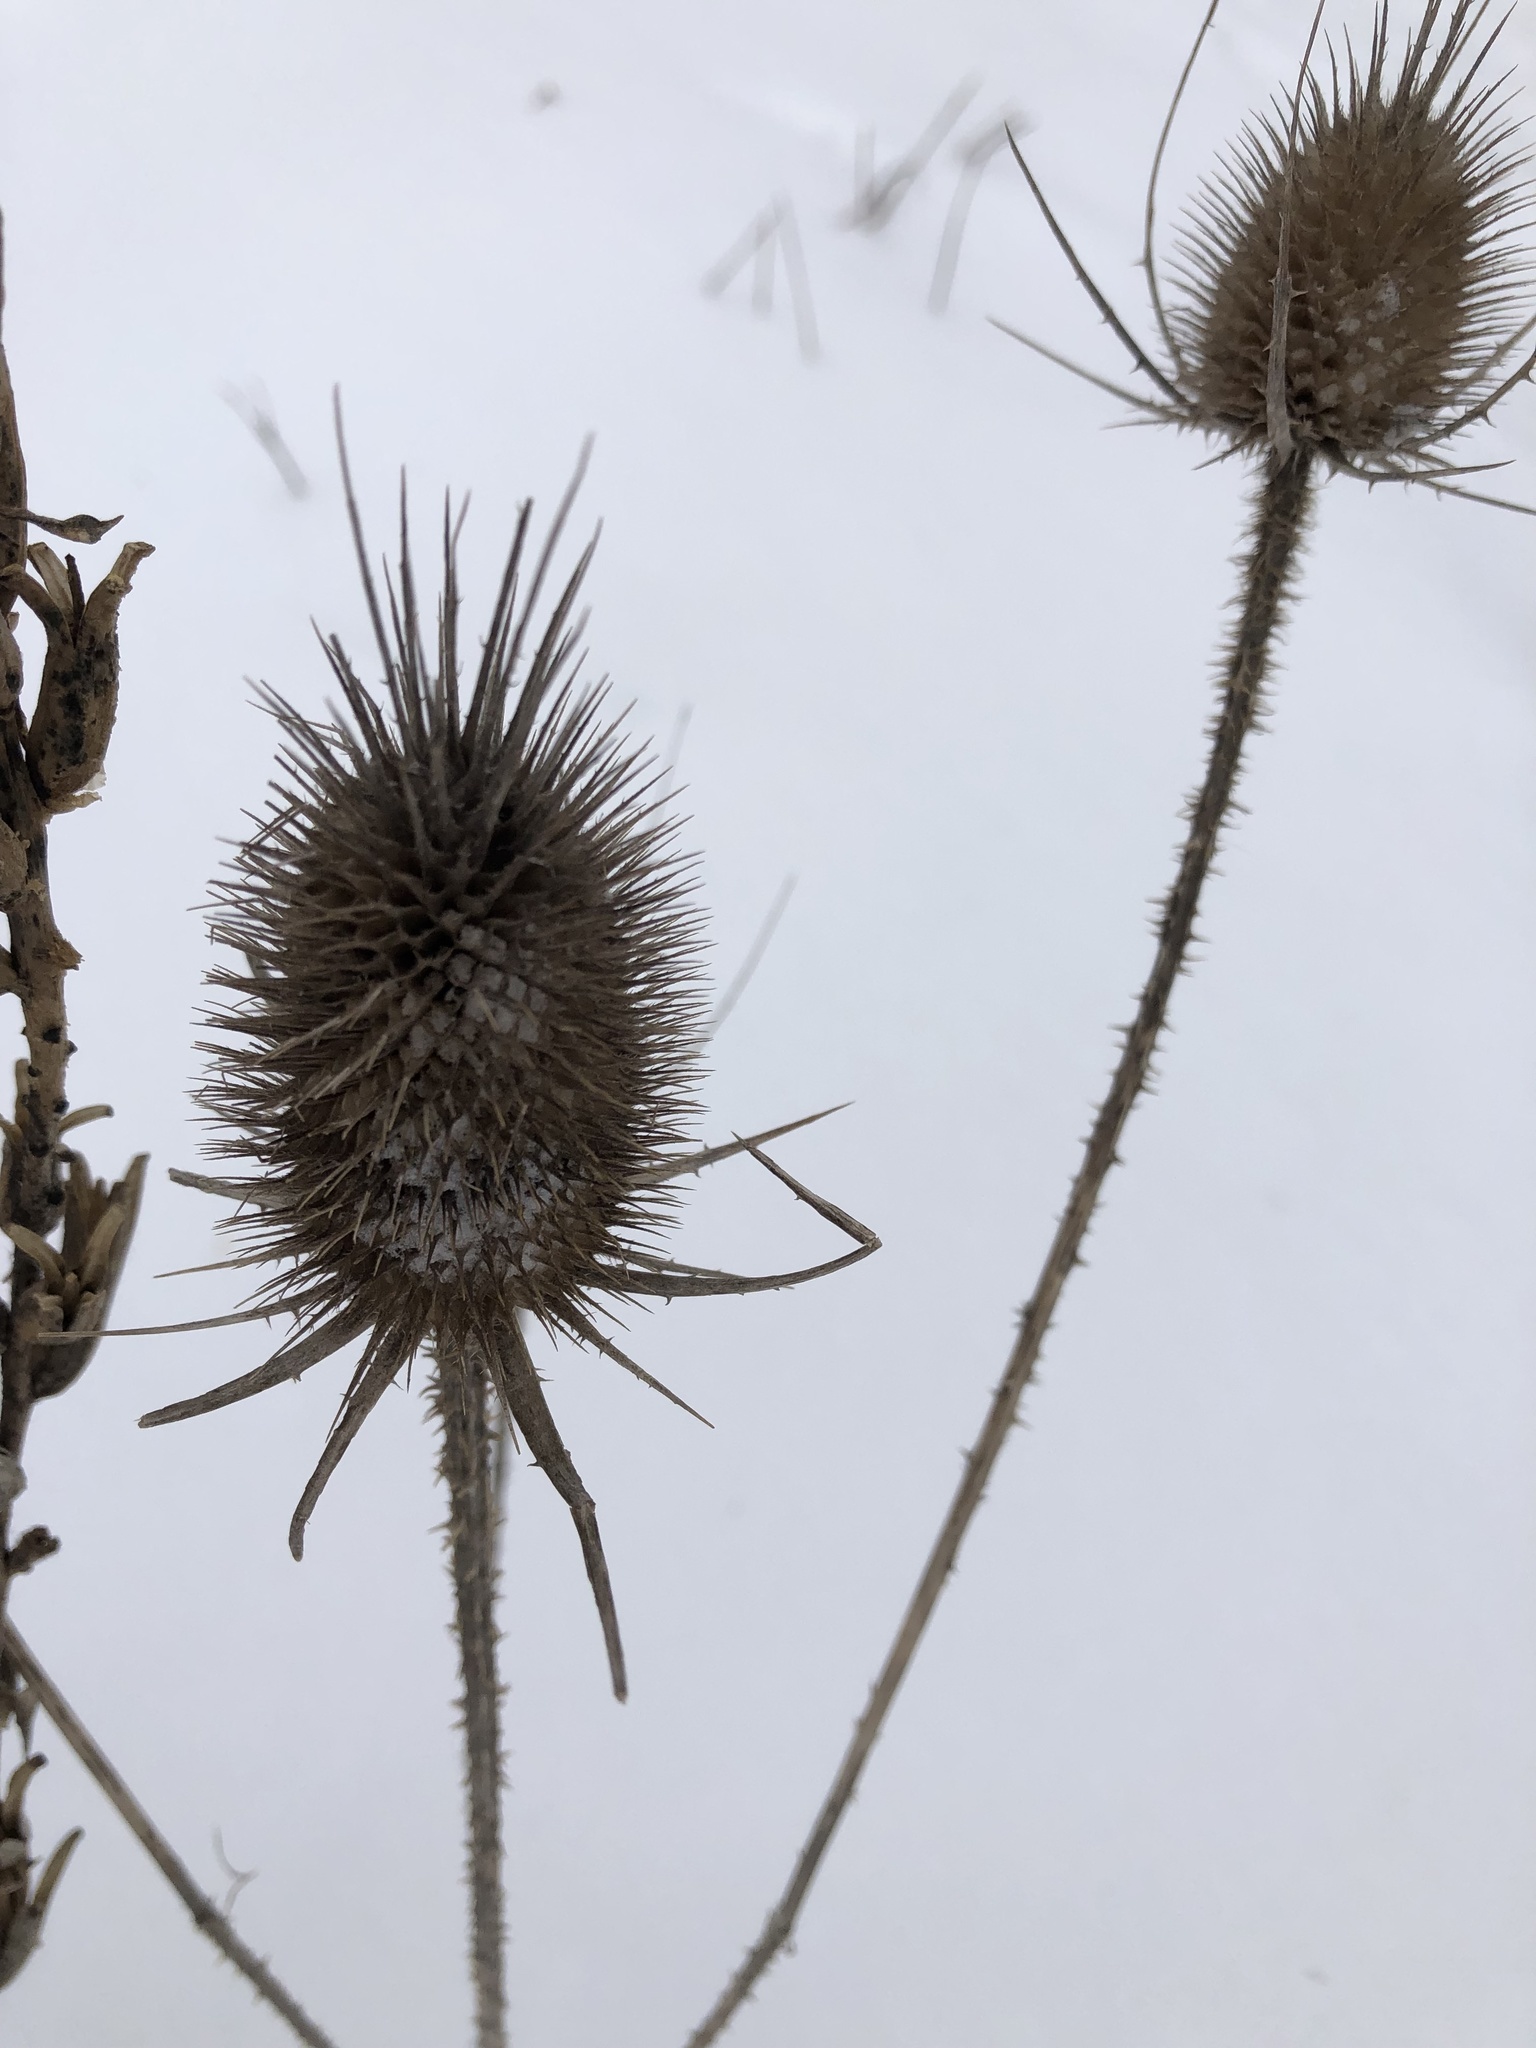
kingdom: Plantae
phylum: Tracheophyta
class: Magnoliopsida
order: Dipsacales
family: Caprifoliaceae
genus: Dipsacus
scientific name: Dipsacus fullonum
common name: Teasel
